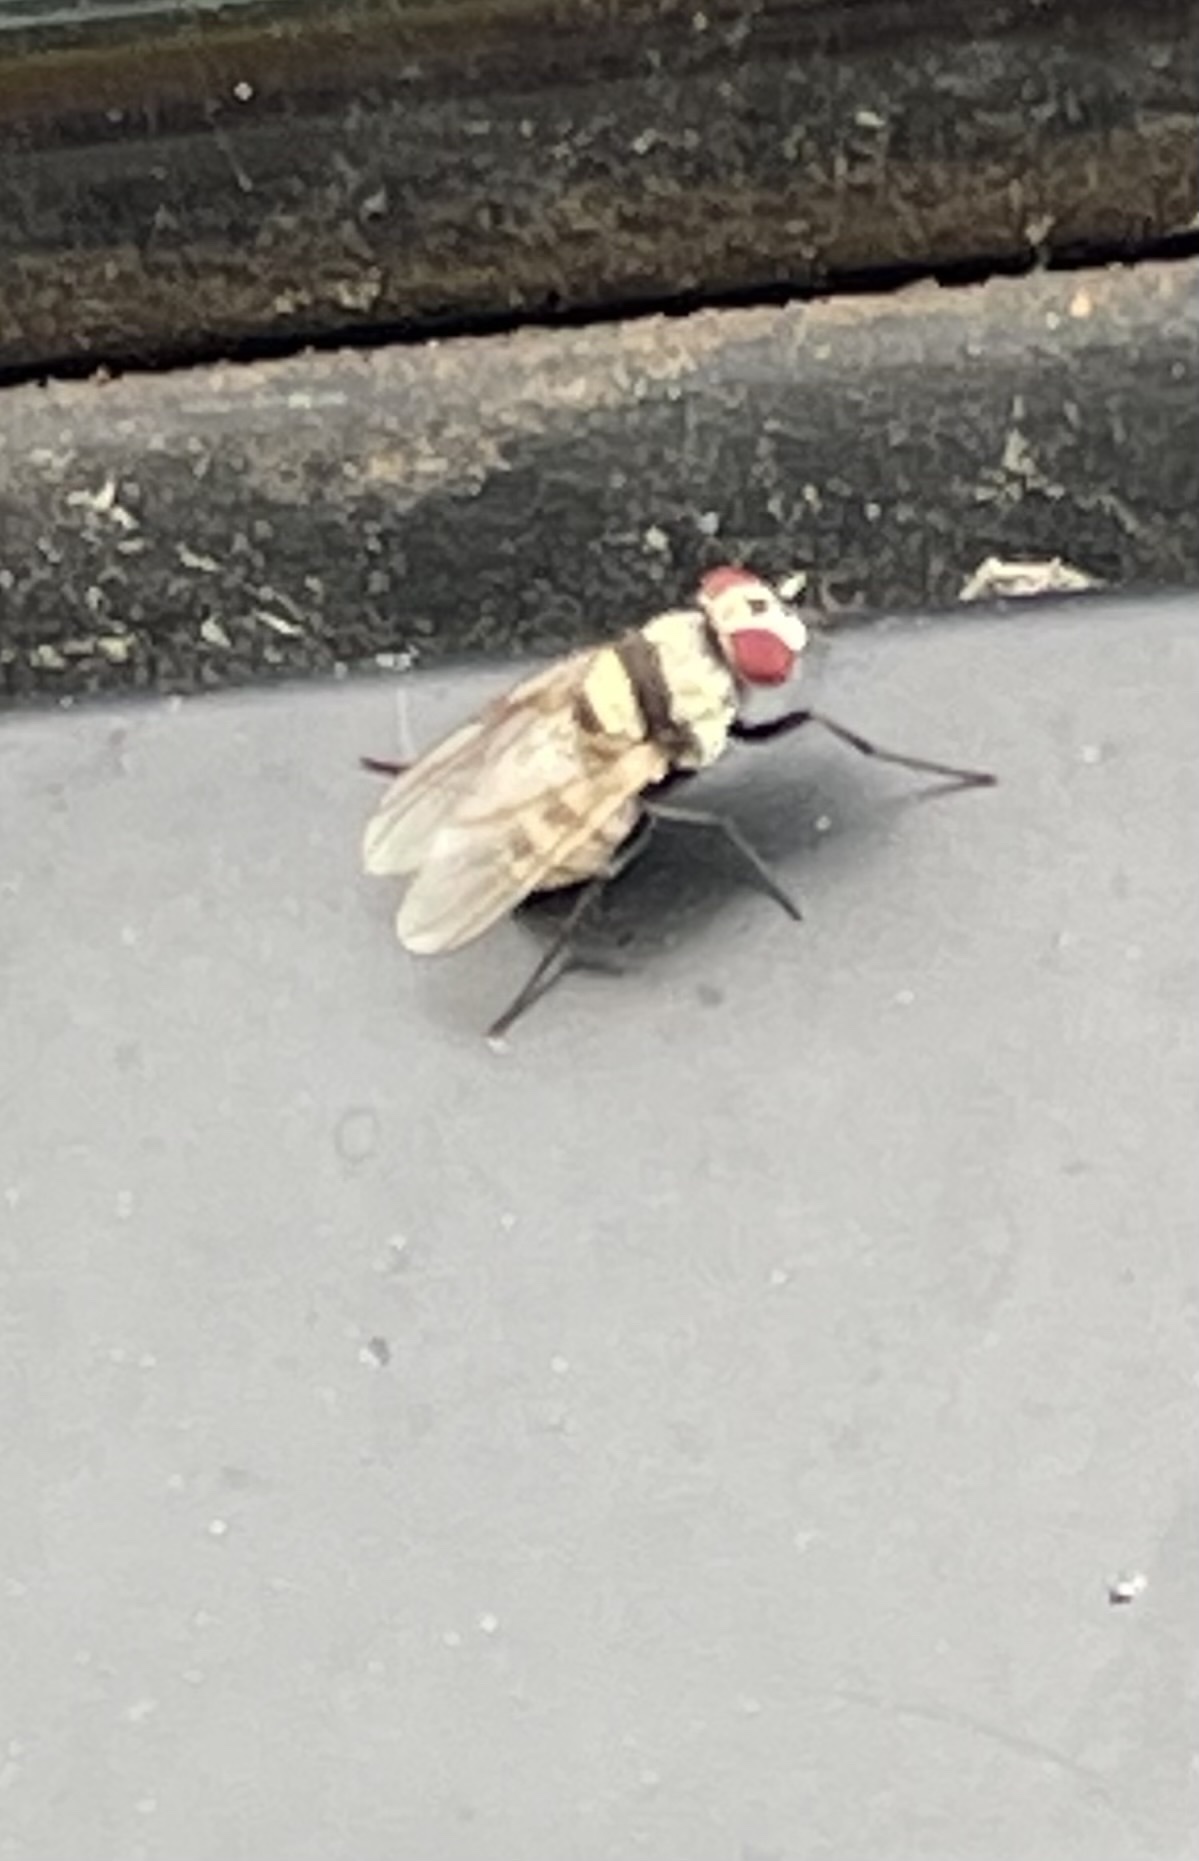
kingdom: Animalia
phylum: Arthropoda
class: Insecta
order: Diptera
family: Anthomyiidae
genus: Anthomyia
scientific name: Anthomyia illocata
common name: Fly
